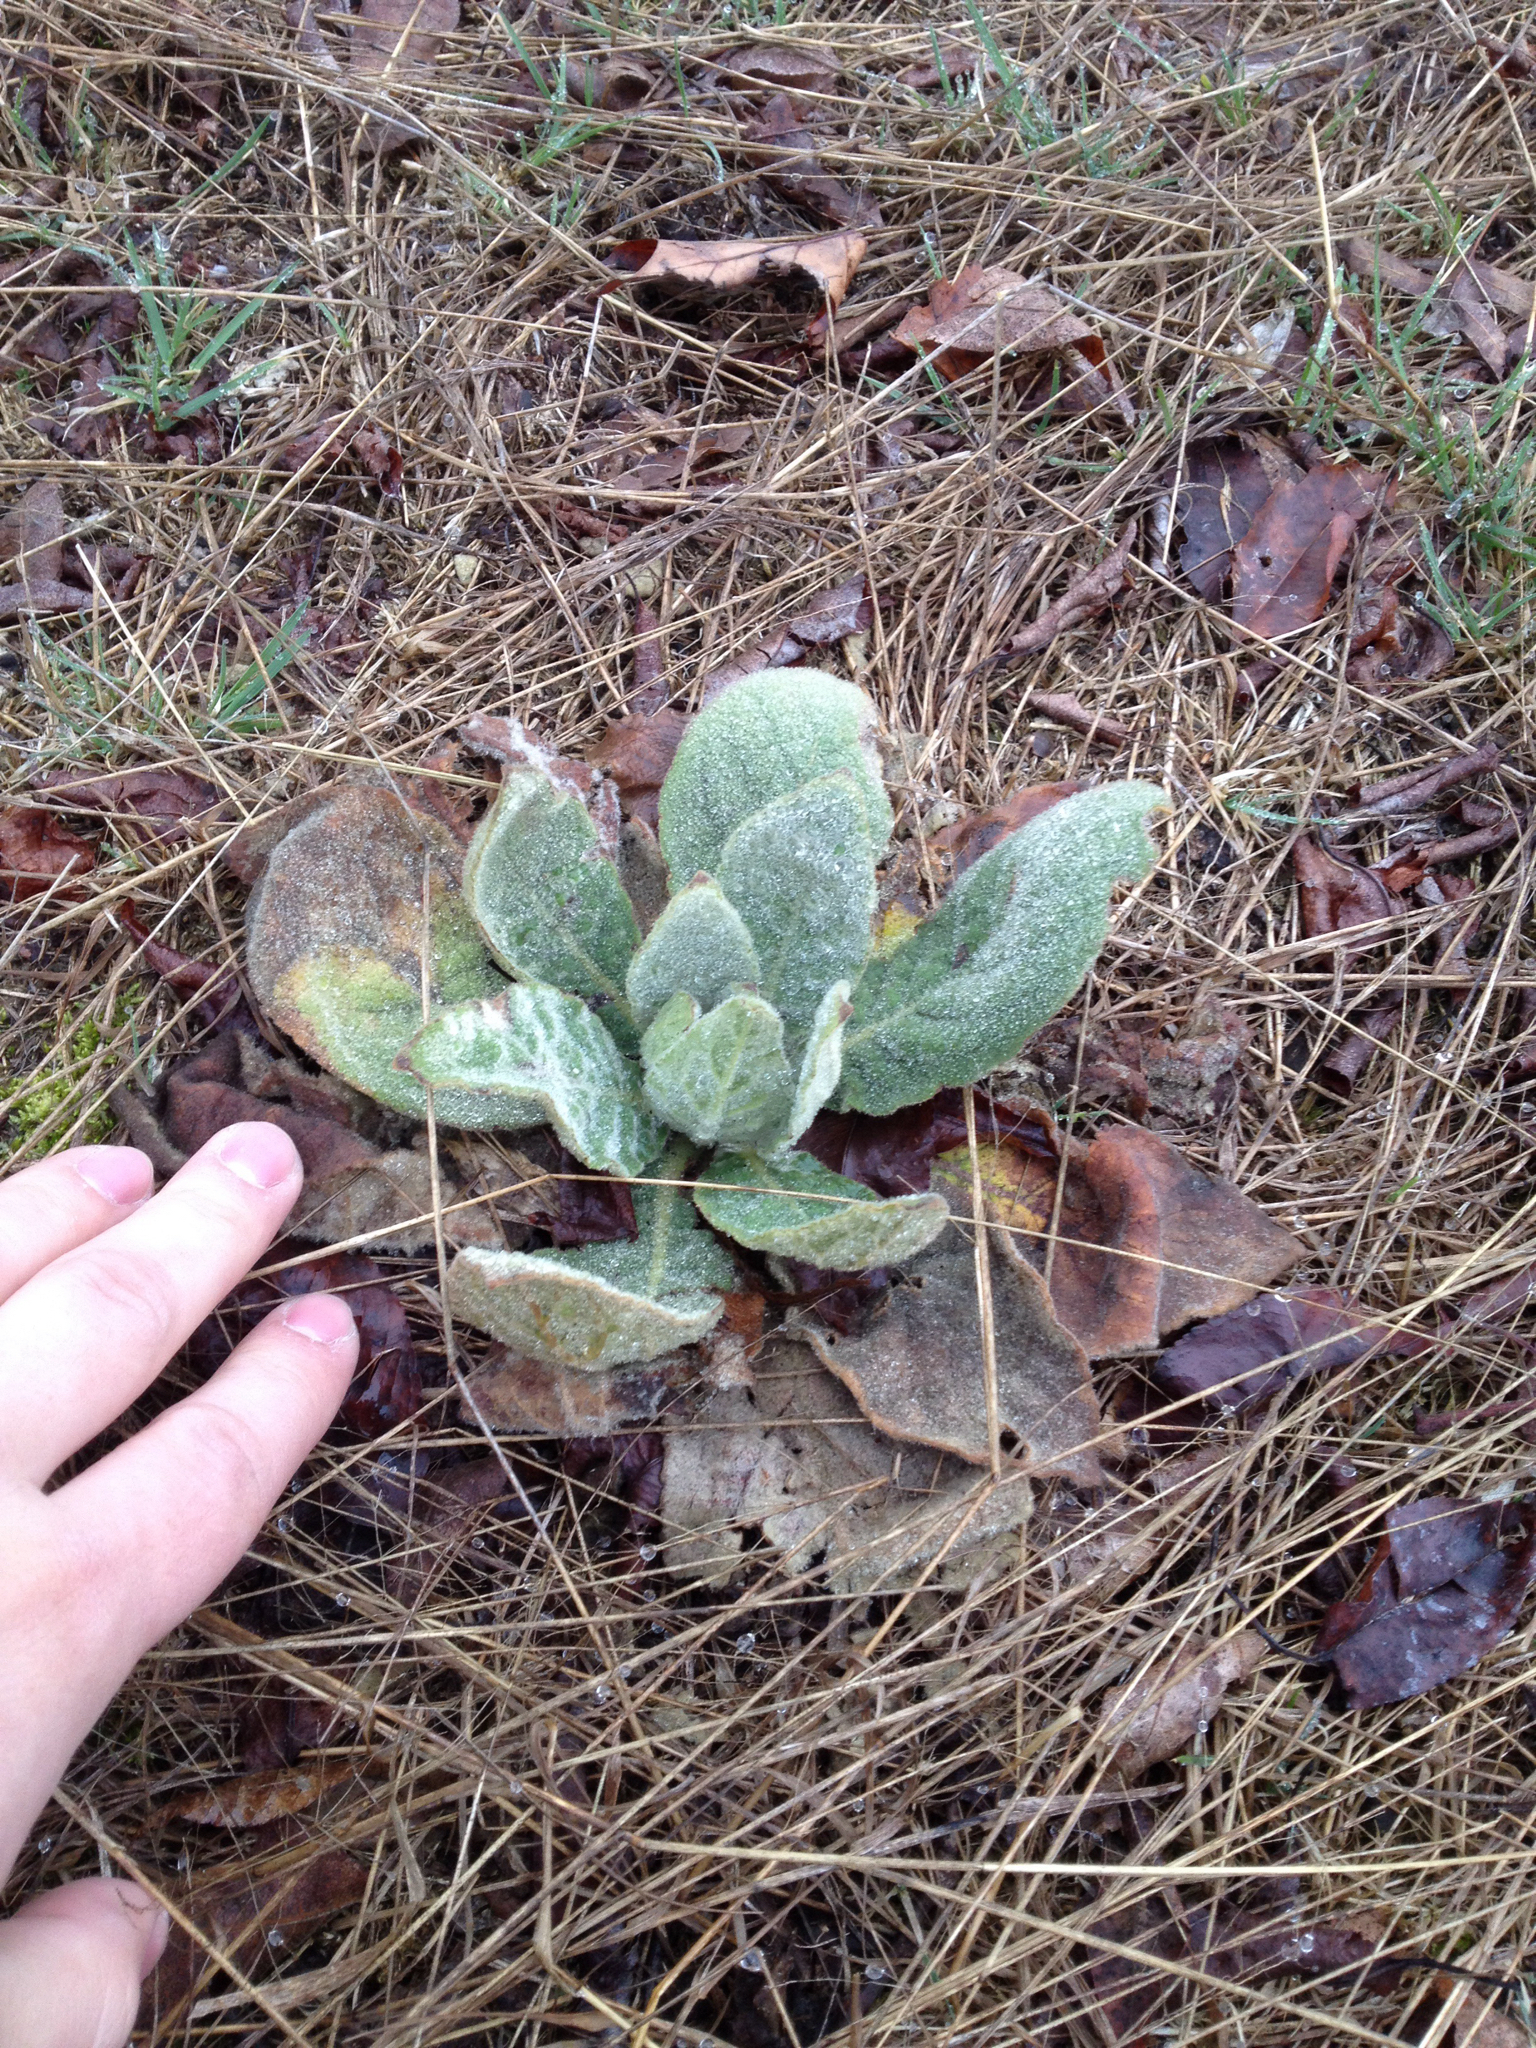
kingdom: Plantae
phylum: Tracheophyta
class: Magnoliopsida
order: Lamiales
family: Scrophulariaceae
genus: Verbascum
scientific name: Verbascum thapsus
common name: Common mullein
